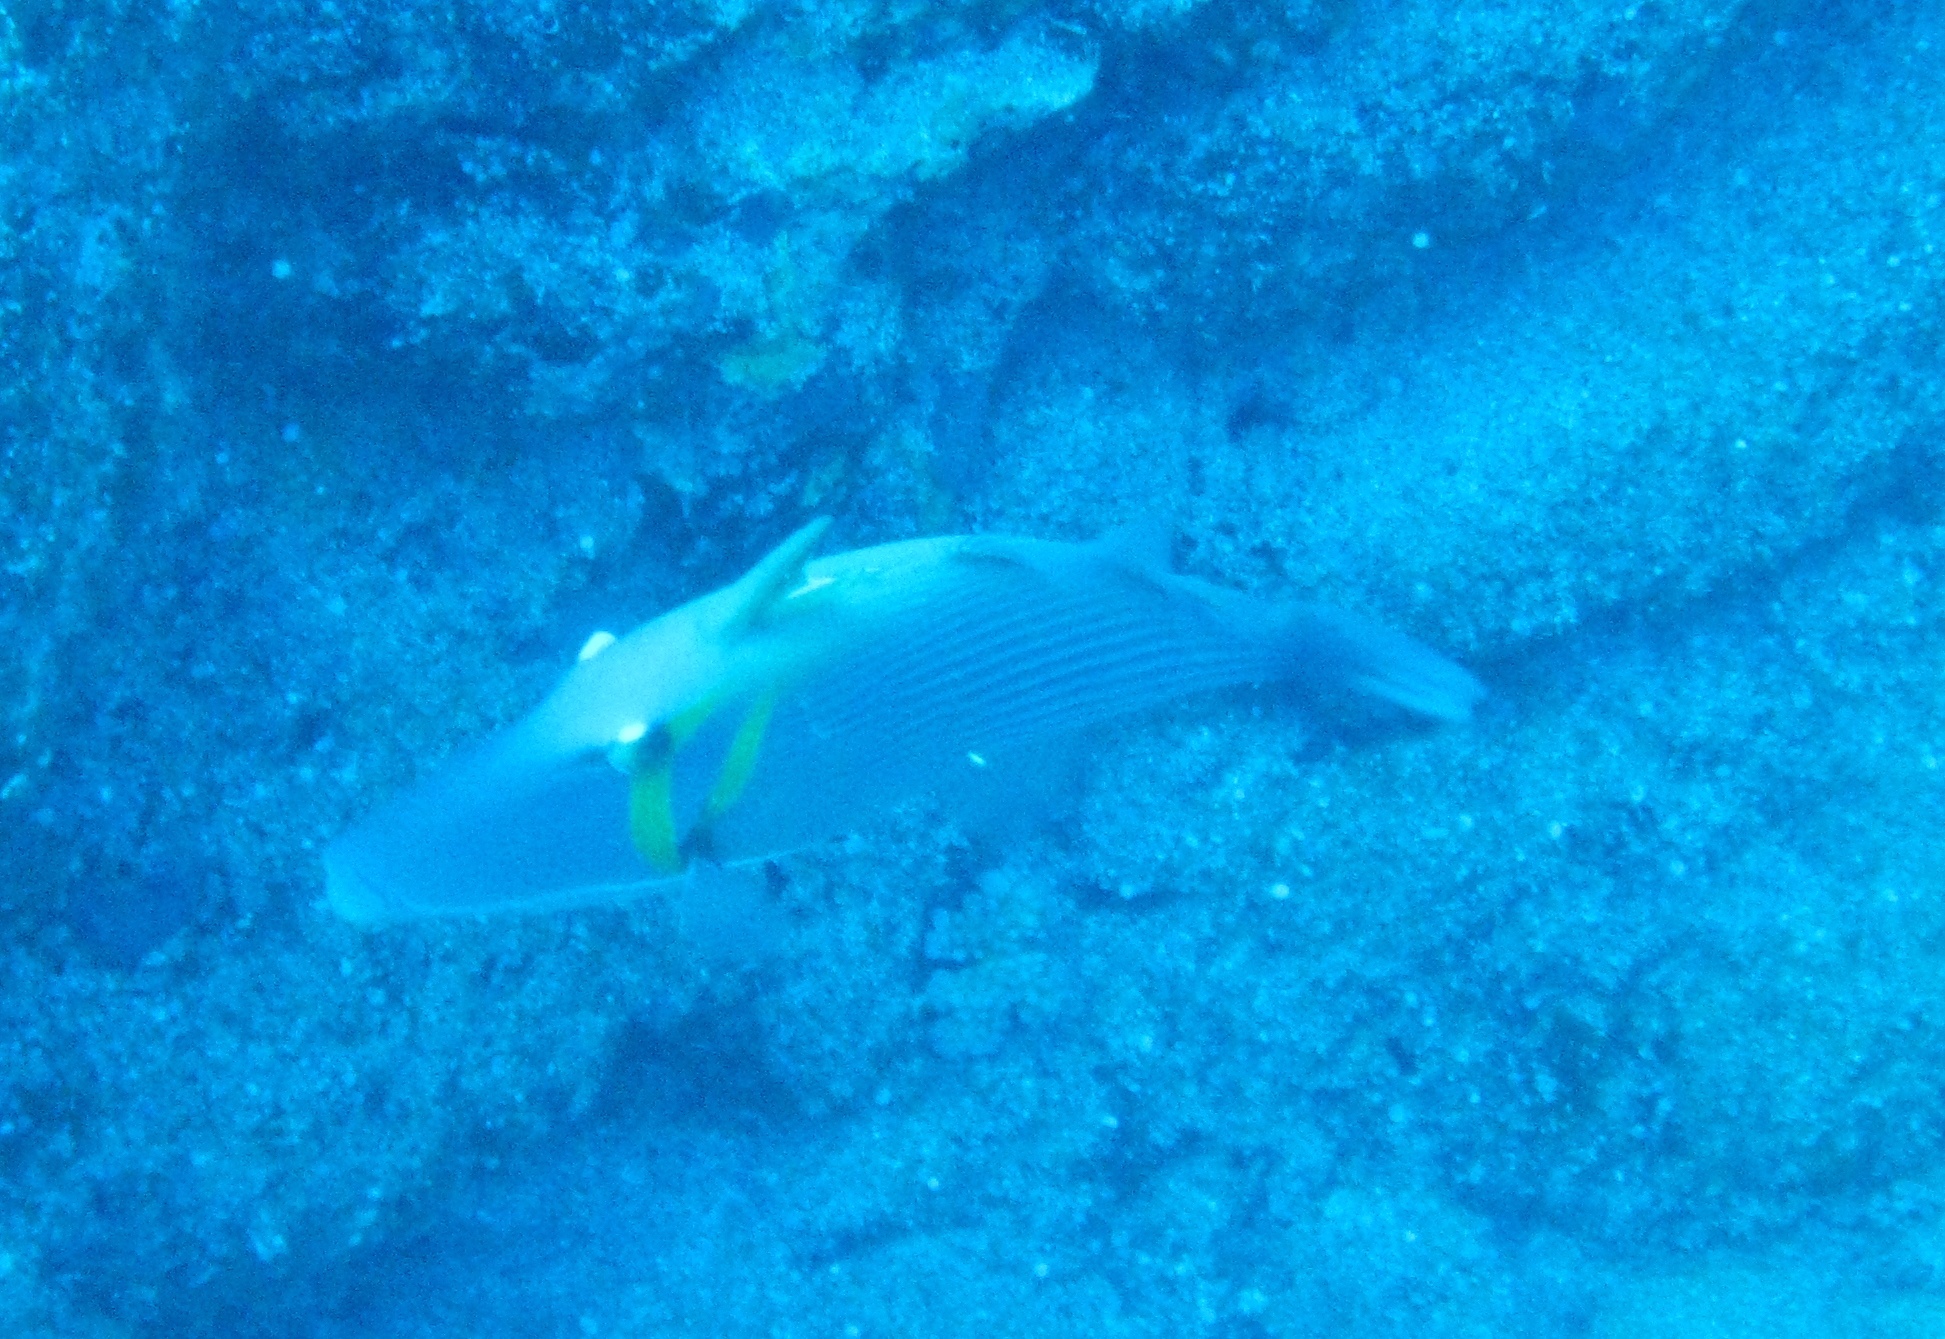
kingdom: Animalia
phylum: Chordata
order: Tetraodontiformes
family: Balistidae
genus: Sufflamen
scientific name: Sufflamen bursa
